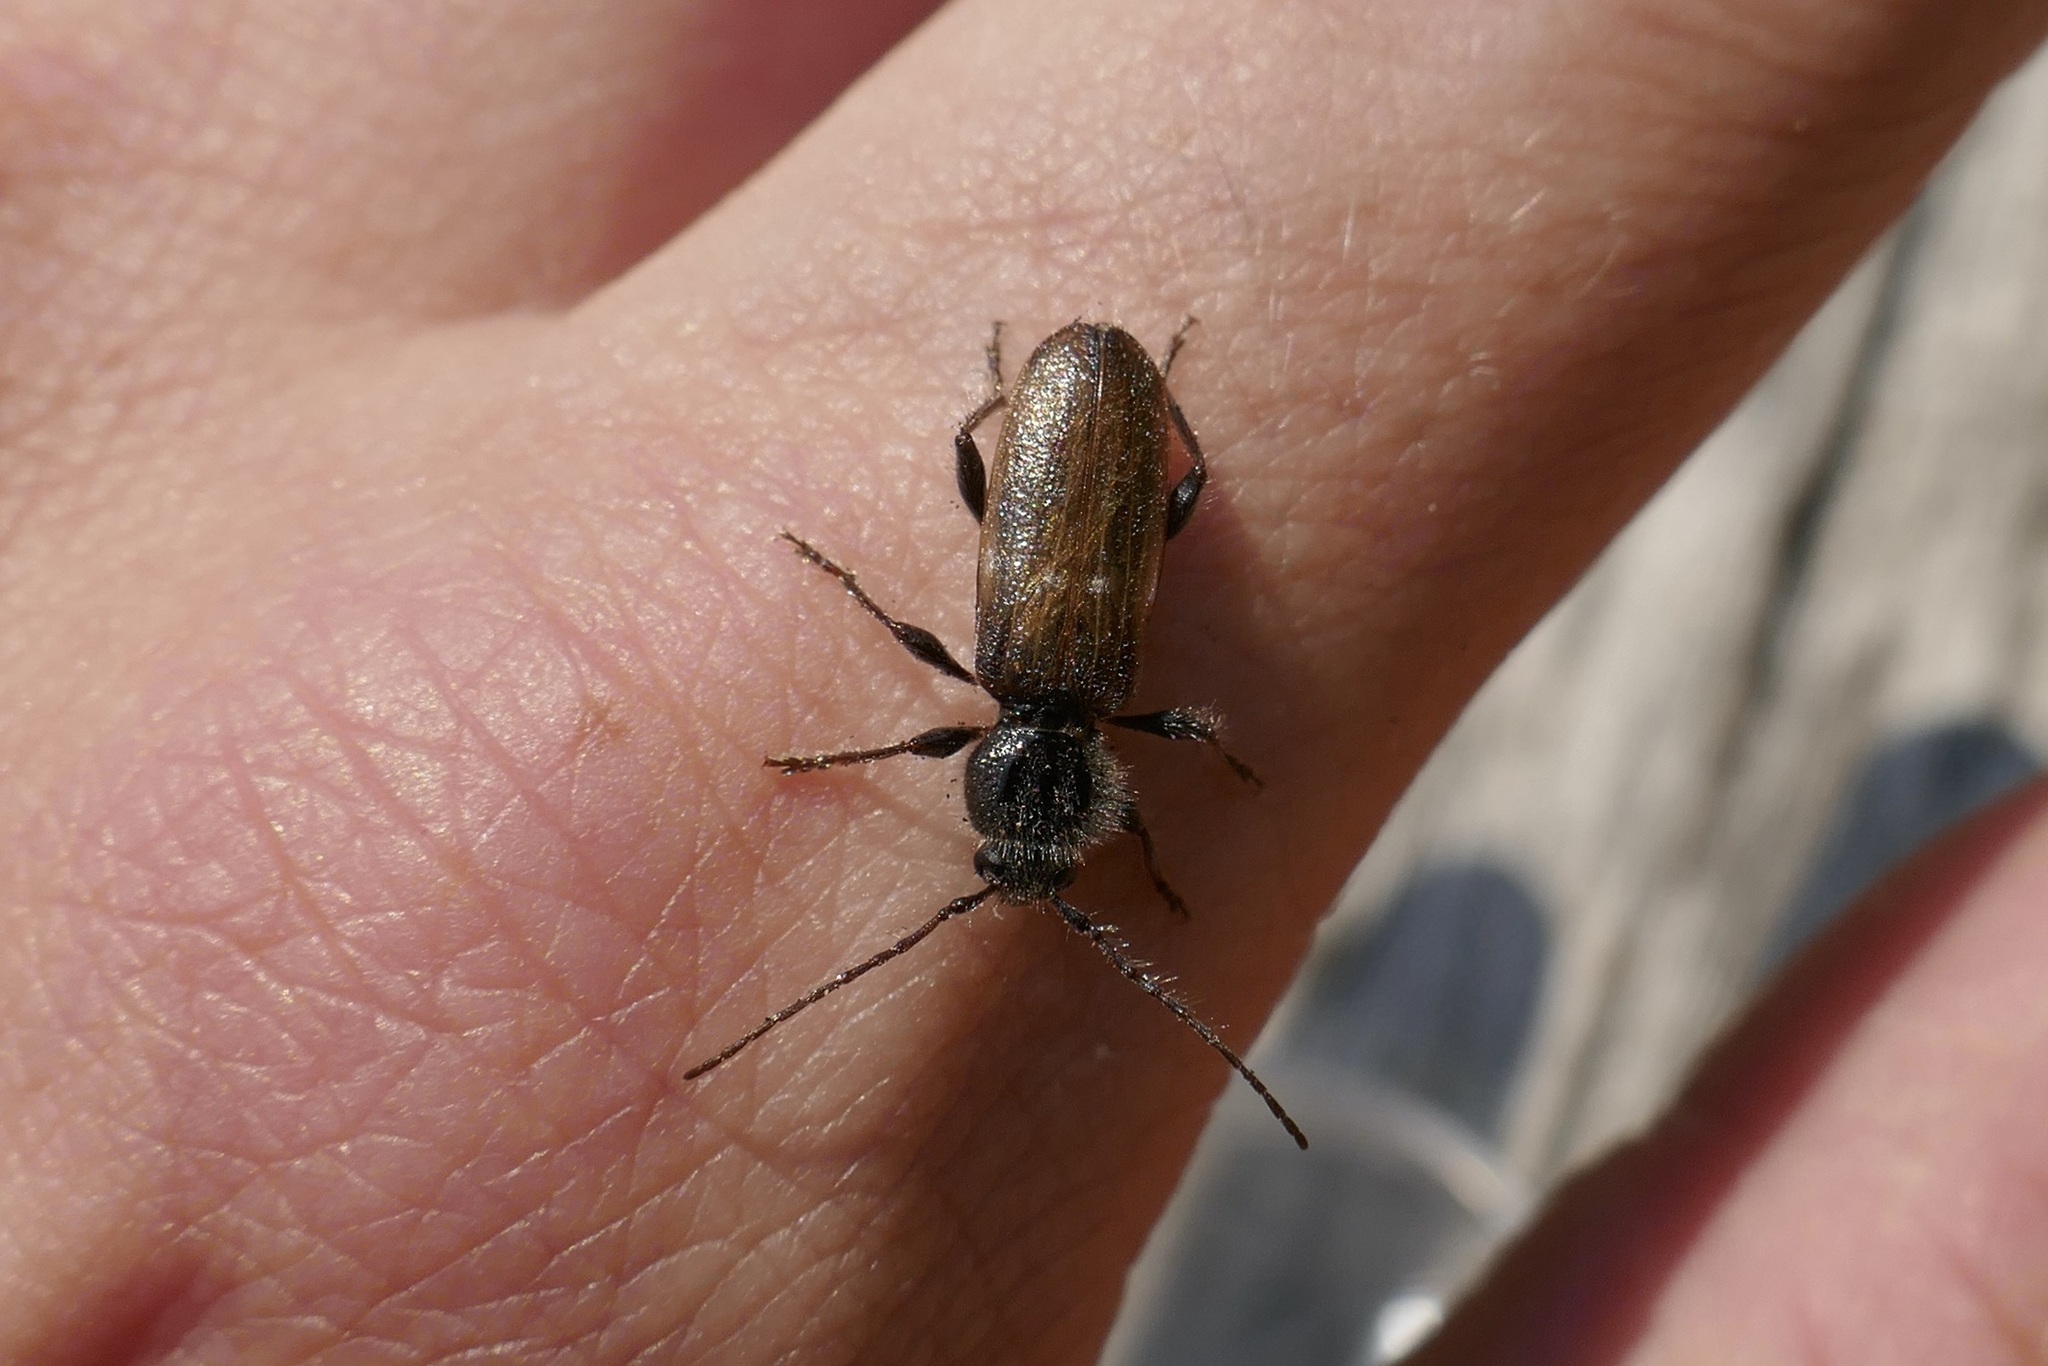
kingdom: Animalia
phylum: Arthropoda
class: Insecta
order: Coleoptera
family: Cerambycidae
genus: Hylotrupes
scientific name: Hylotrupes bajulus
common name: Old house borer
